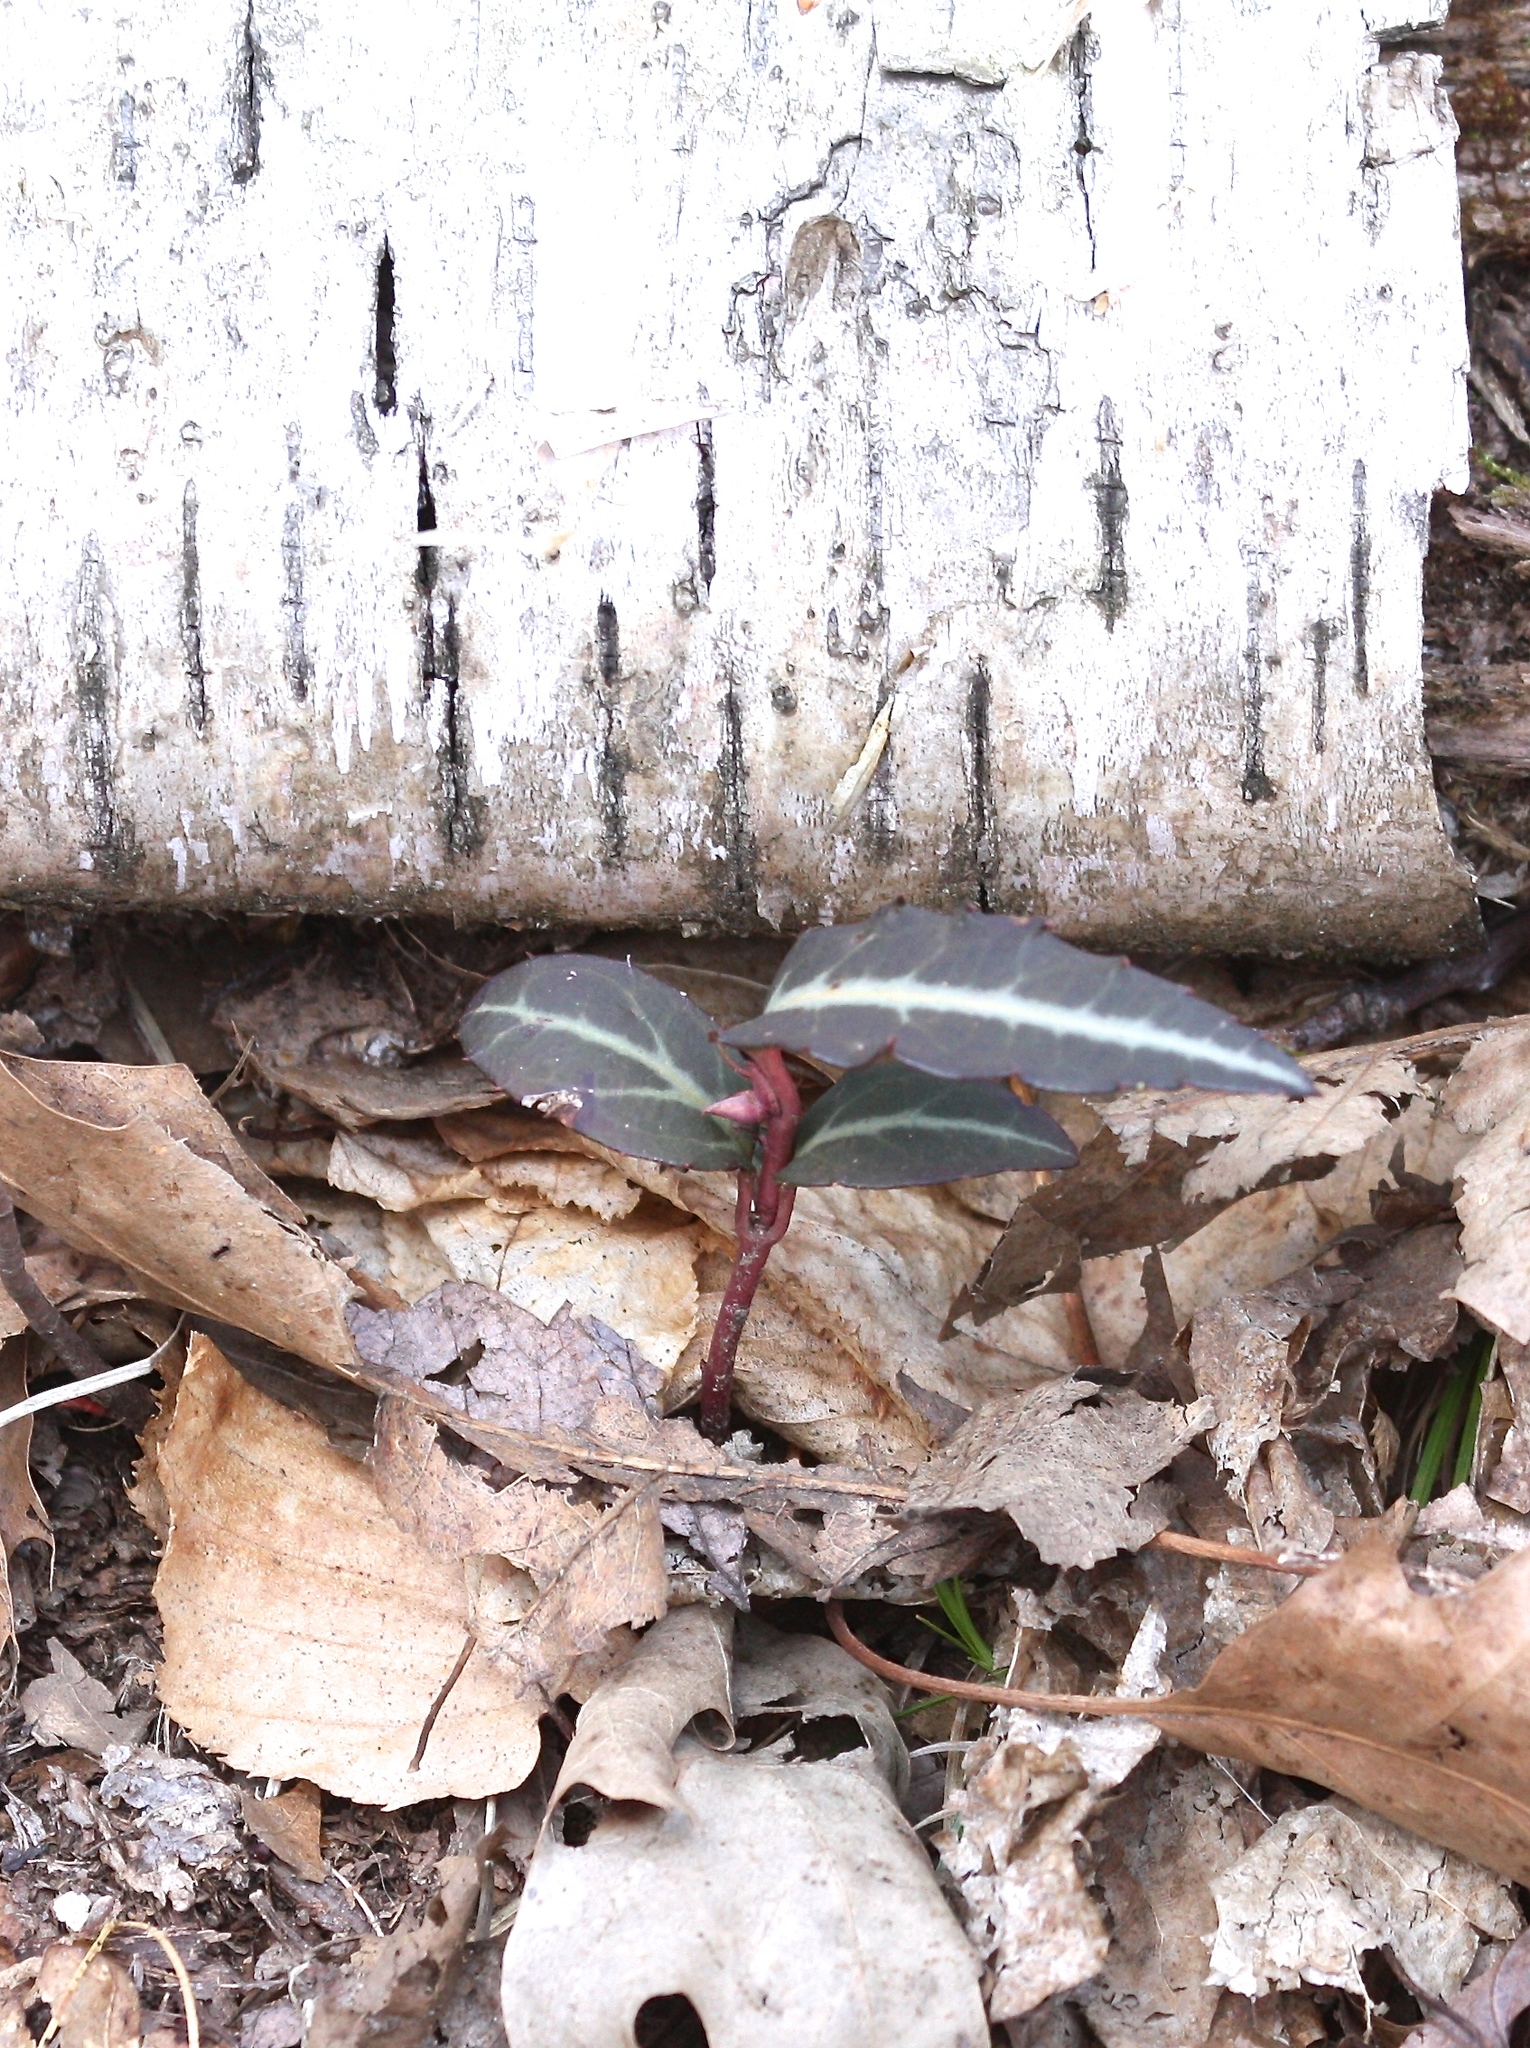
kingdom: Plantae
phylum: Tracheophyta
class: Magnoliopsida
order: Ericales
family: Ericaceae
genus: Chimaphila
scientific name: Chimaphila maculata
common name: Spotted pipsissewa
